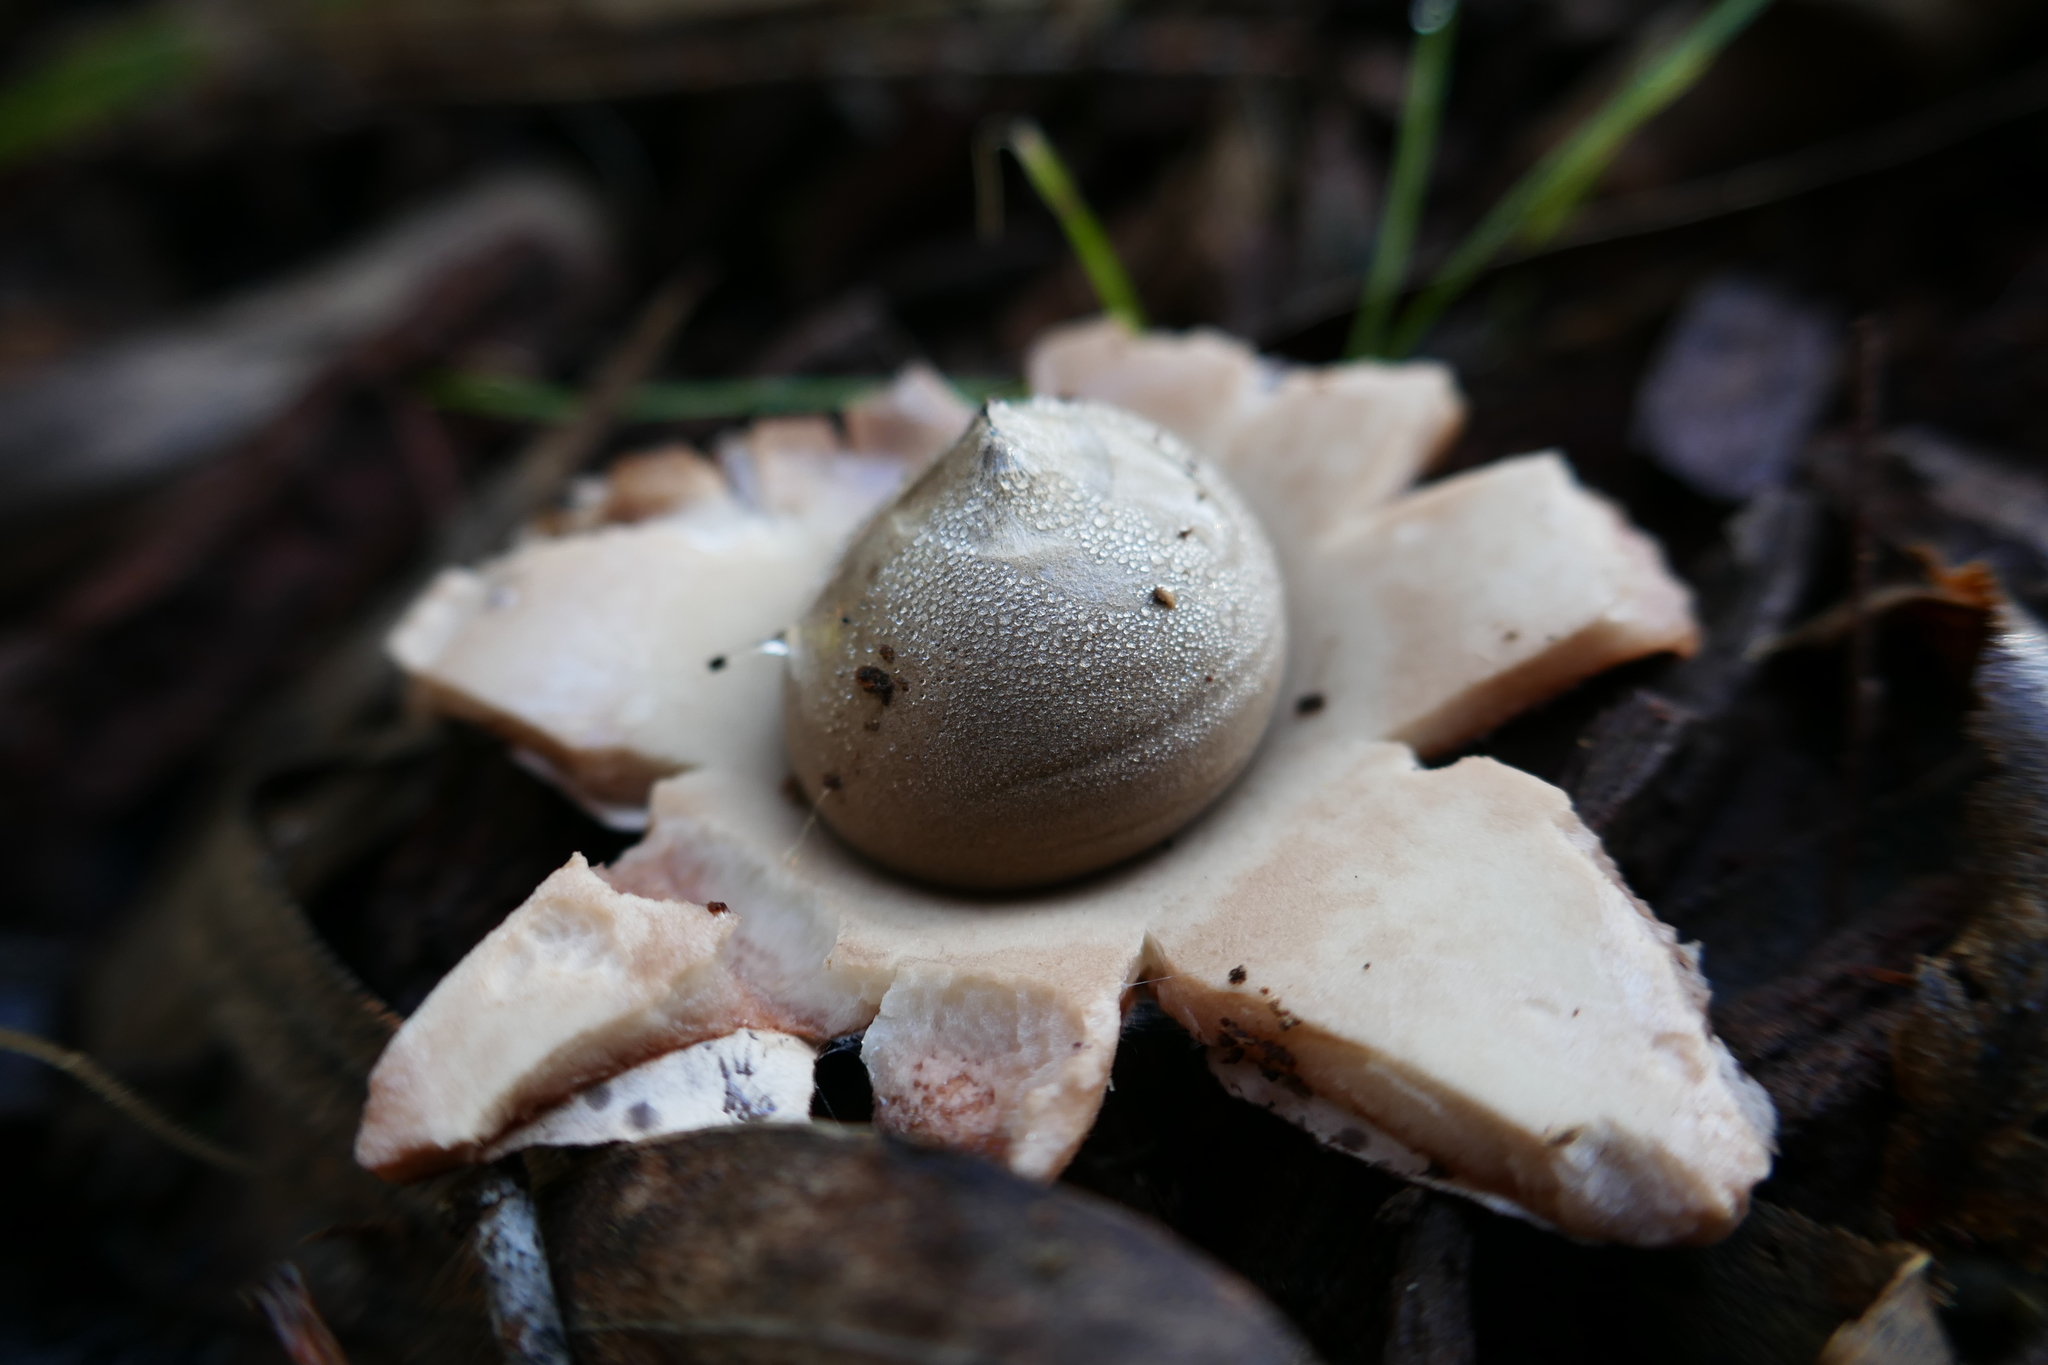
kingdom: Fungi
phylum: Basidiomycota
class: Agaricomycetes
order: Geastrales
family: Geastraceae
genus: Geastrum
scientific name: Geastrum triplex
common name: Collared earthstar
